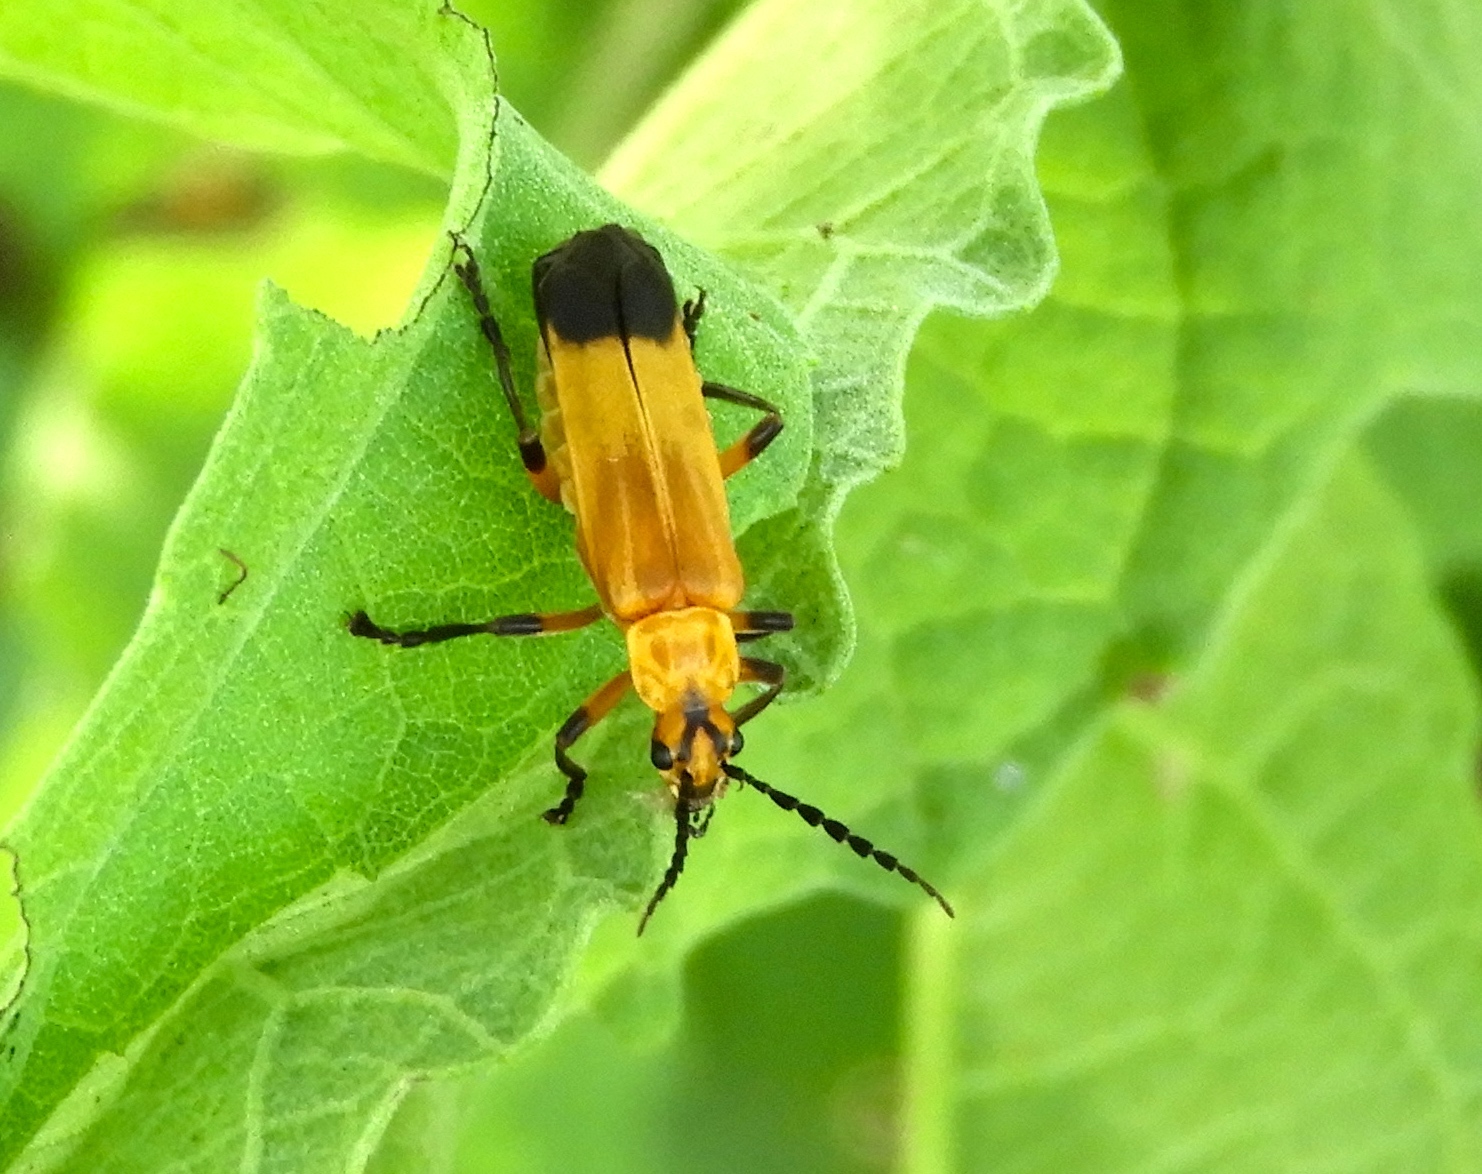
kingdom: Animalia
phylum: Arthropoda
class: Insecta
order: Coleoptera
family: Cantharidae
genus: Daiphron
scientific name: Daiphron proteum
